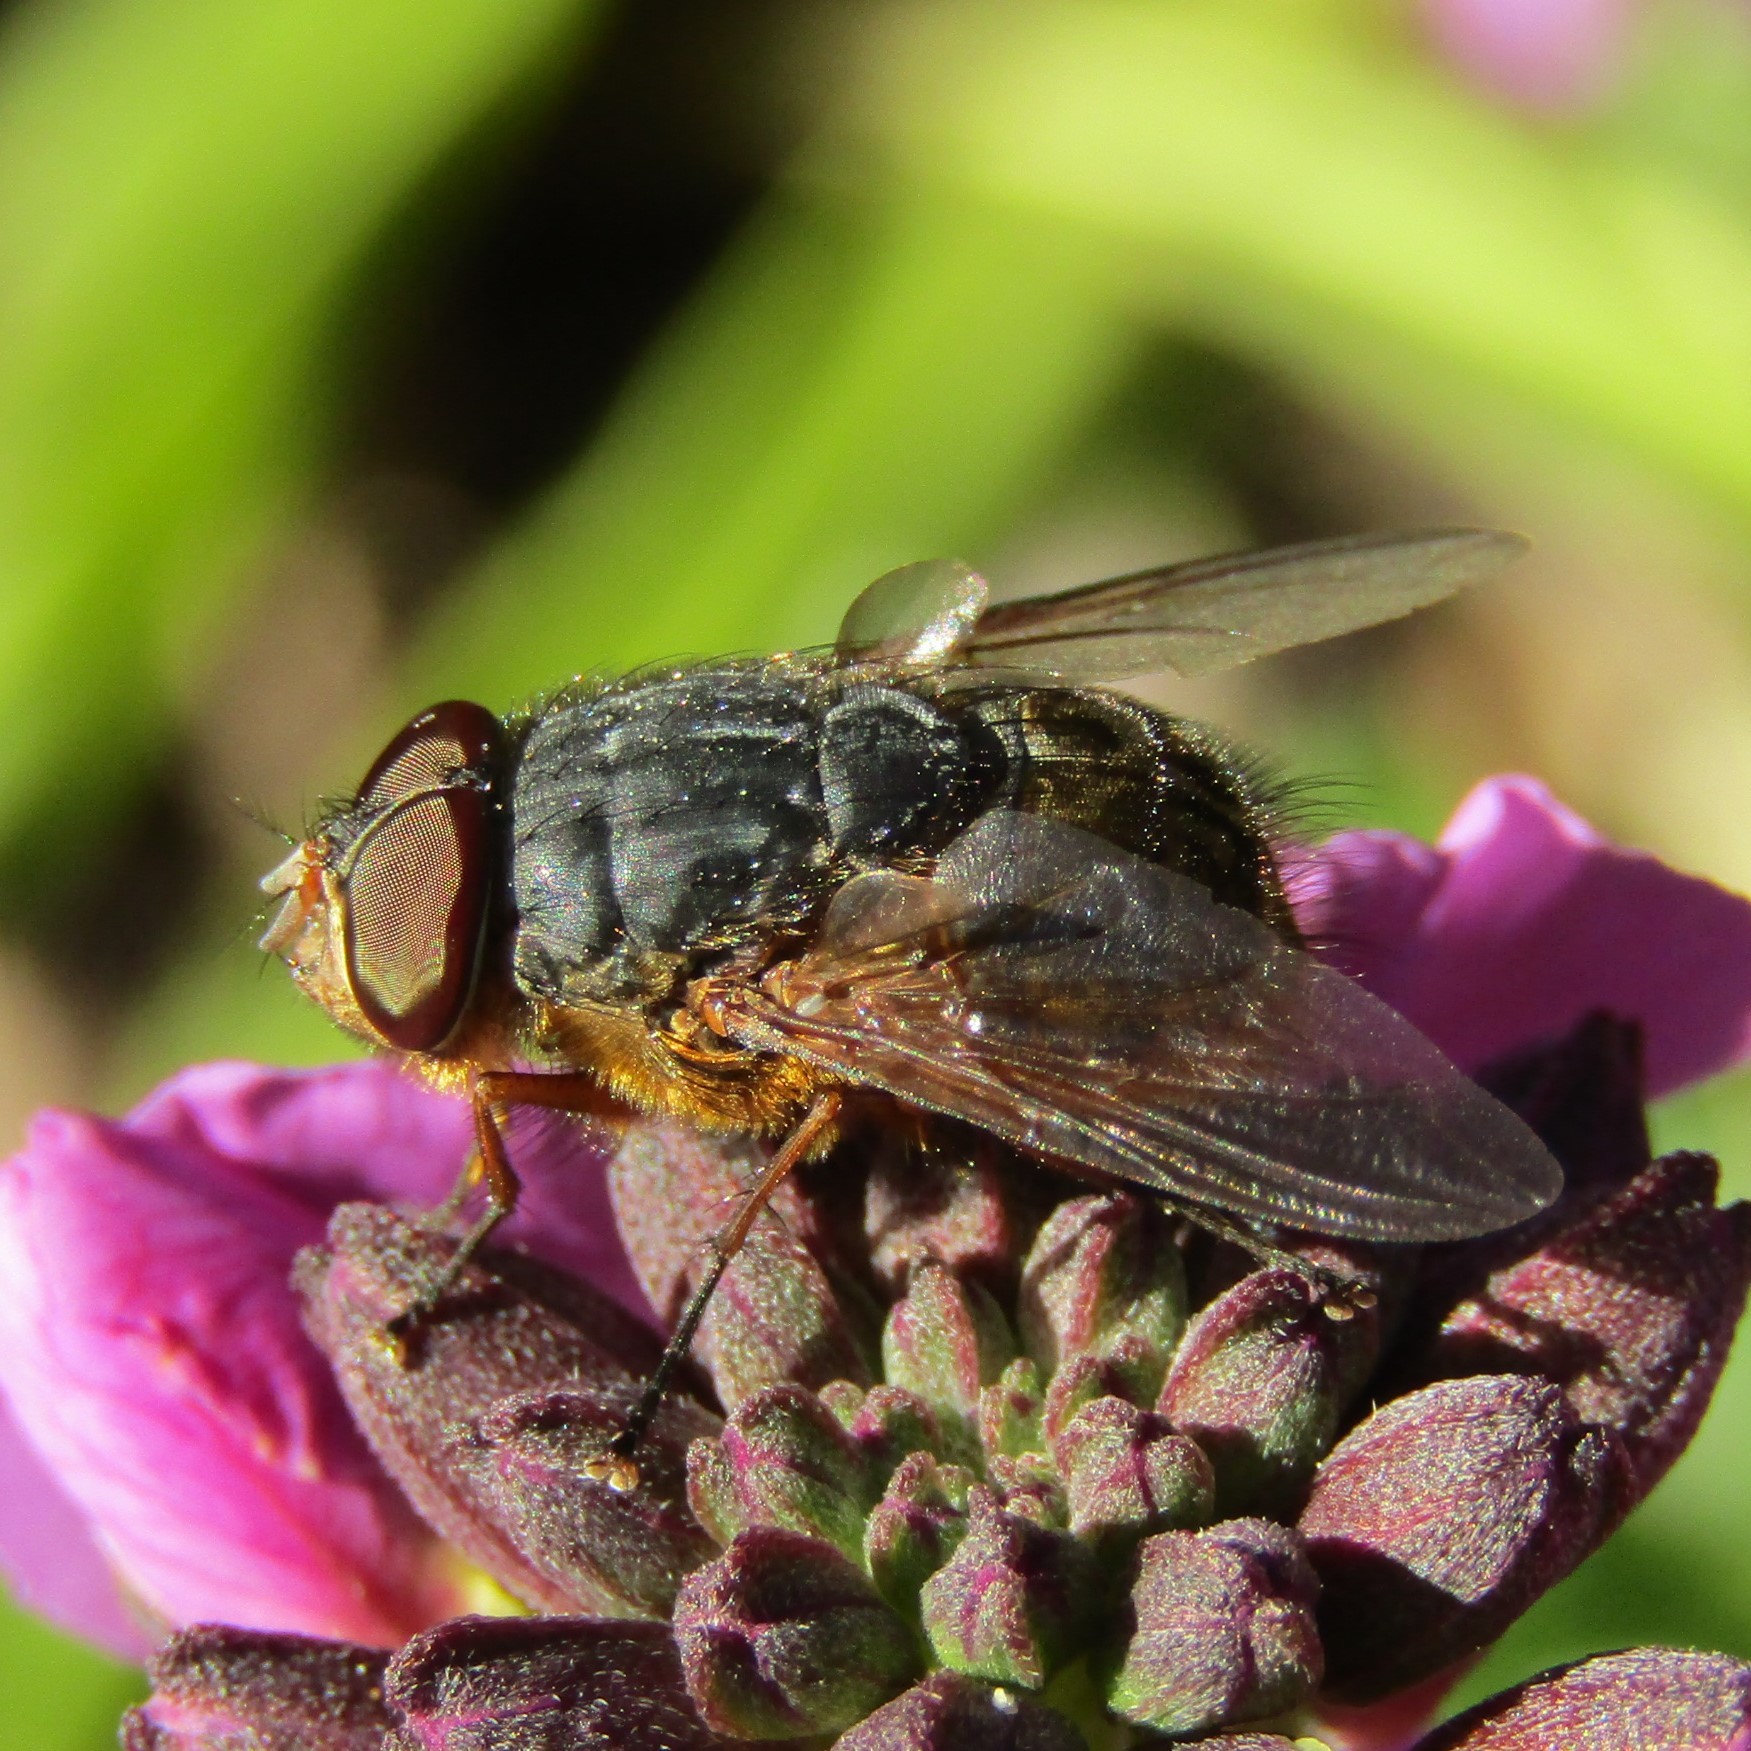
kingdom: Animalia
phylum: Arthropoda
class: Insecta
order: Diptera
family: Calliphoridae
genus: Calliphora
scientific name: Calliphora stygia
